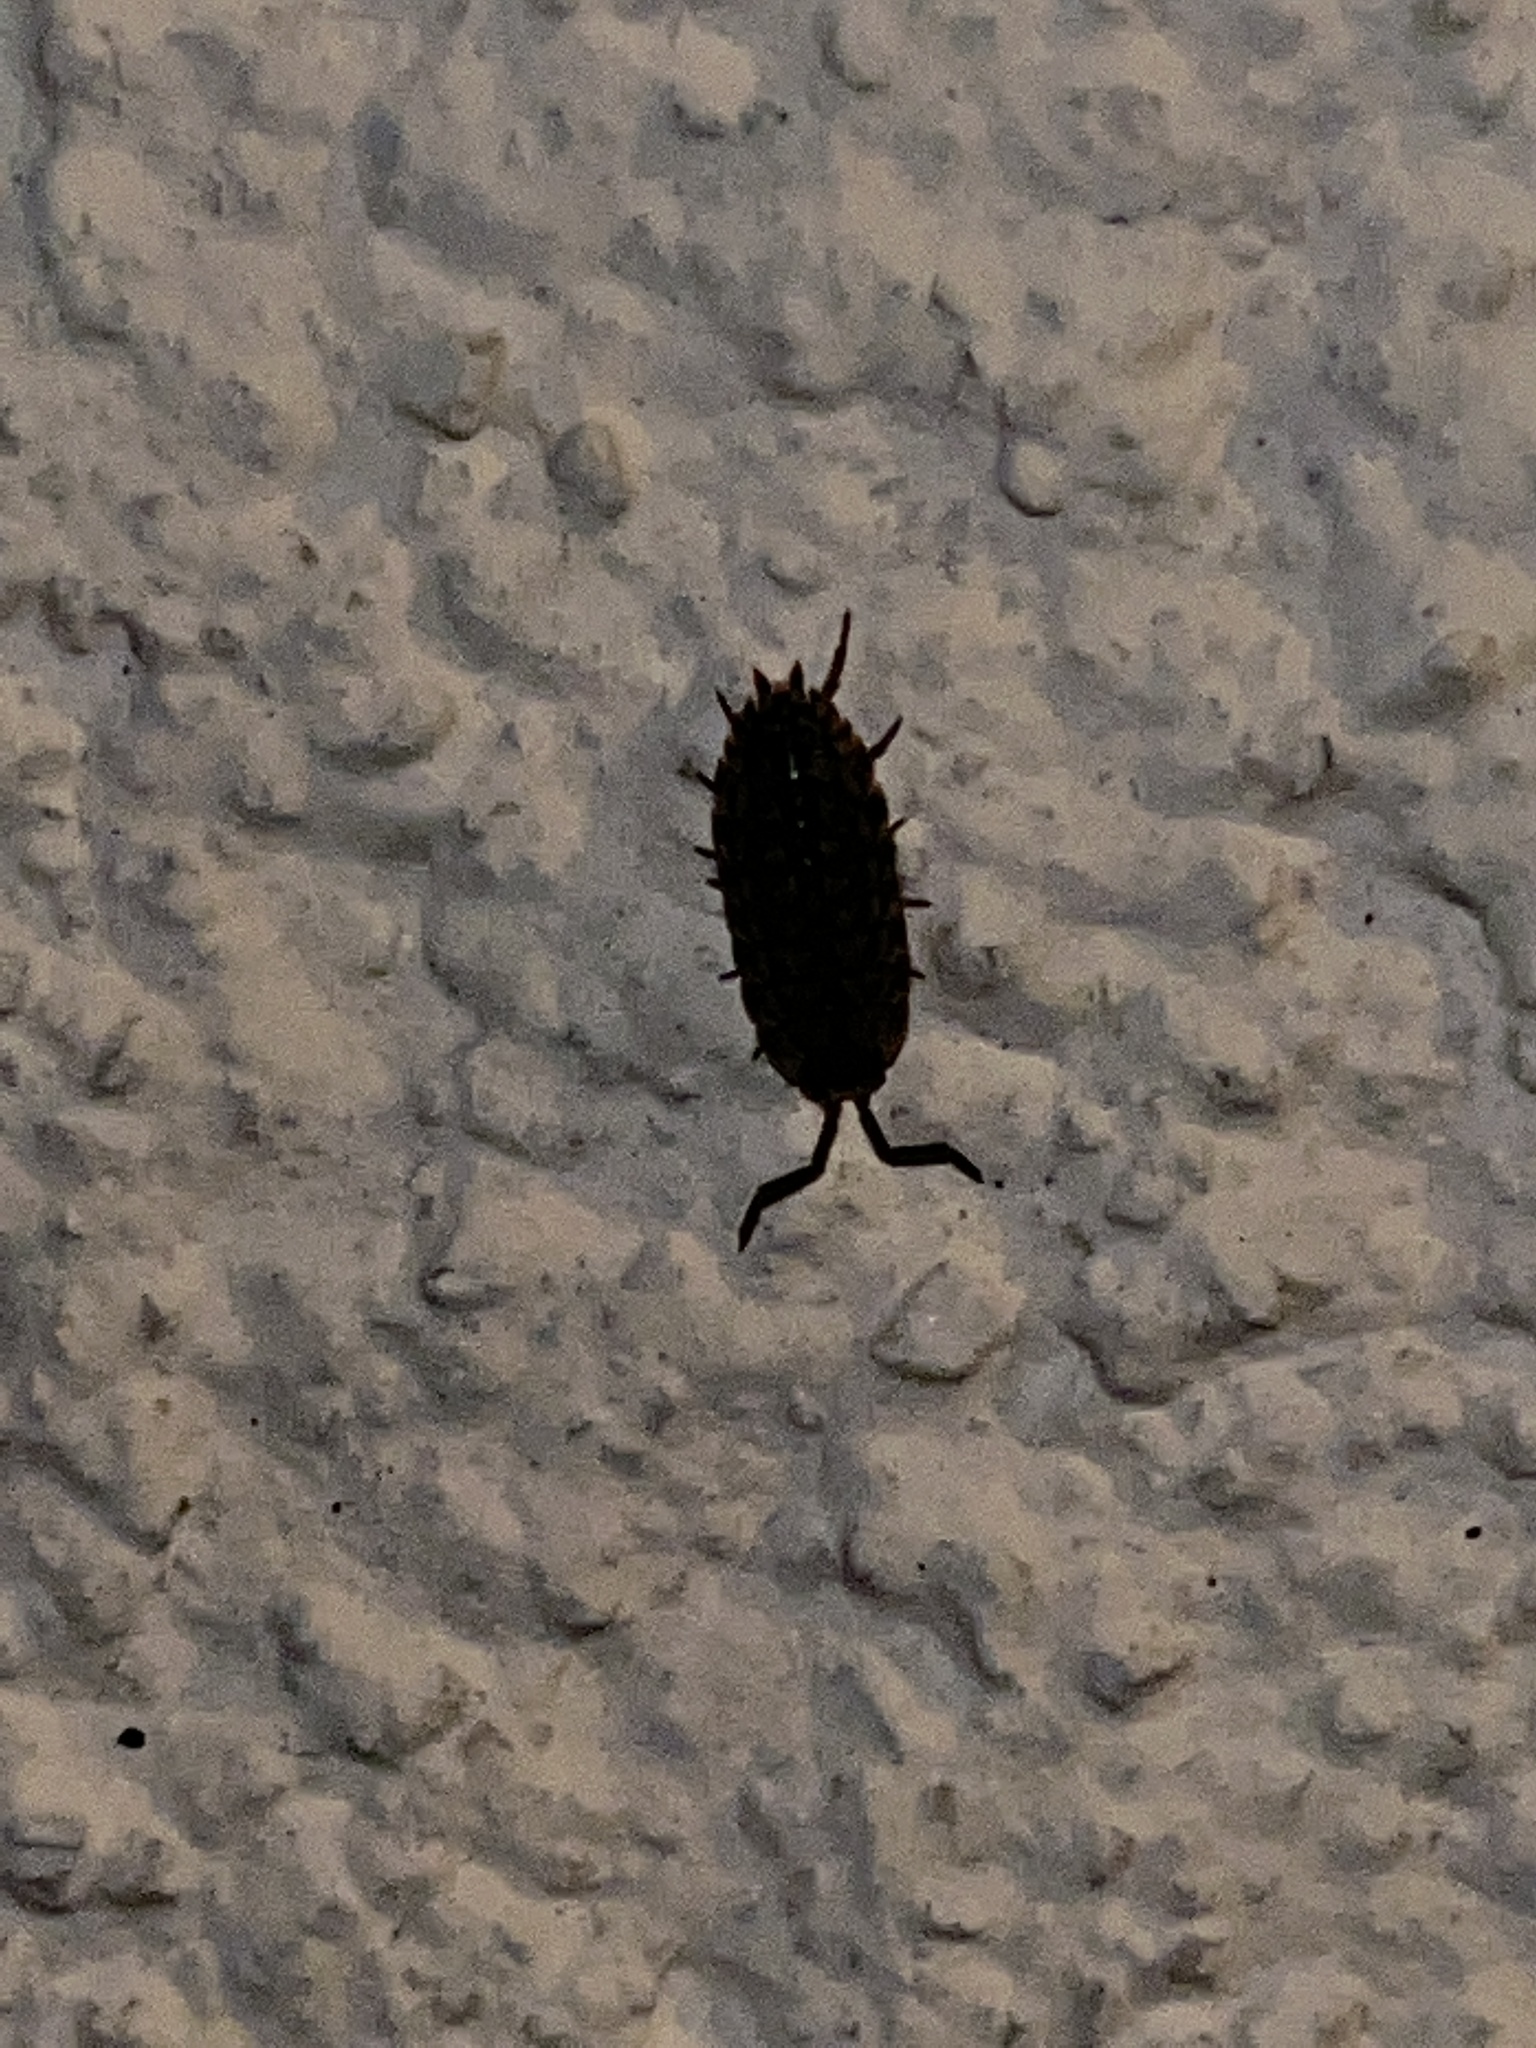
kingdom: Animalia
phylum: Arthropoda
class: Malacostraca
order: Isopoda
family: Porcellionidae
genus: Porcellio
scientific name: Porcellio scaber
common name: Common rough woodlouse
